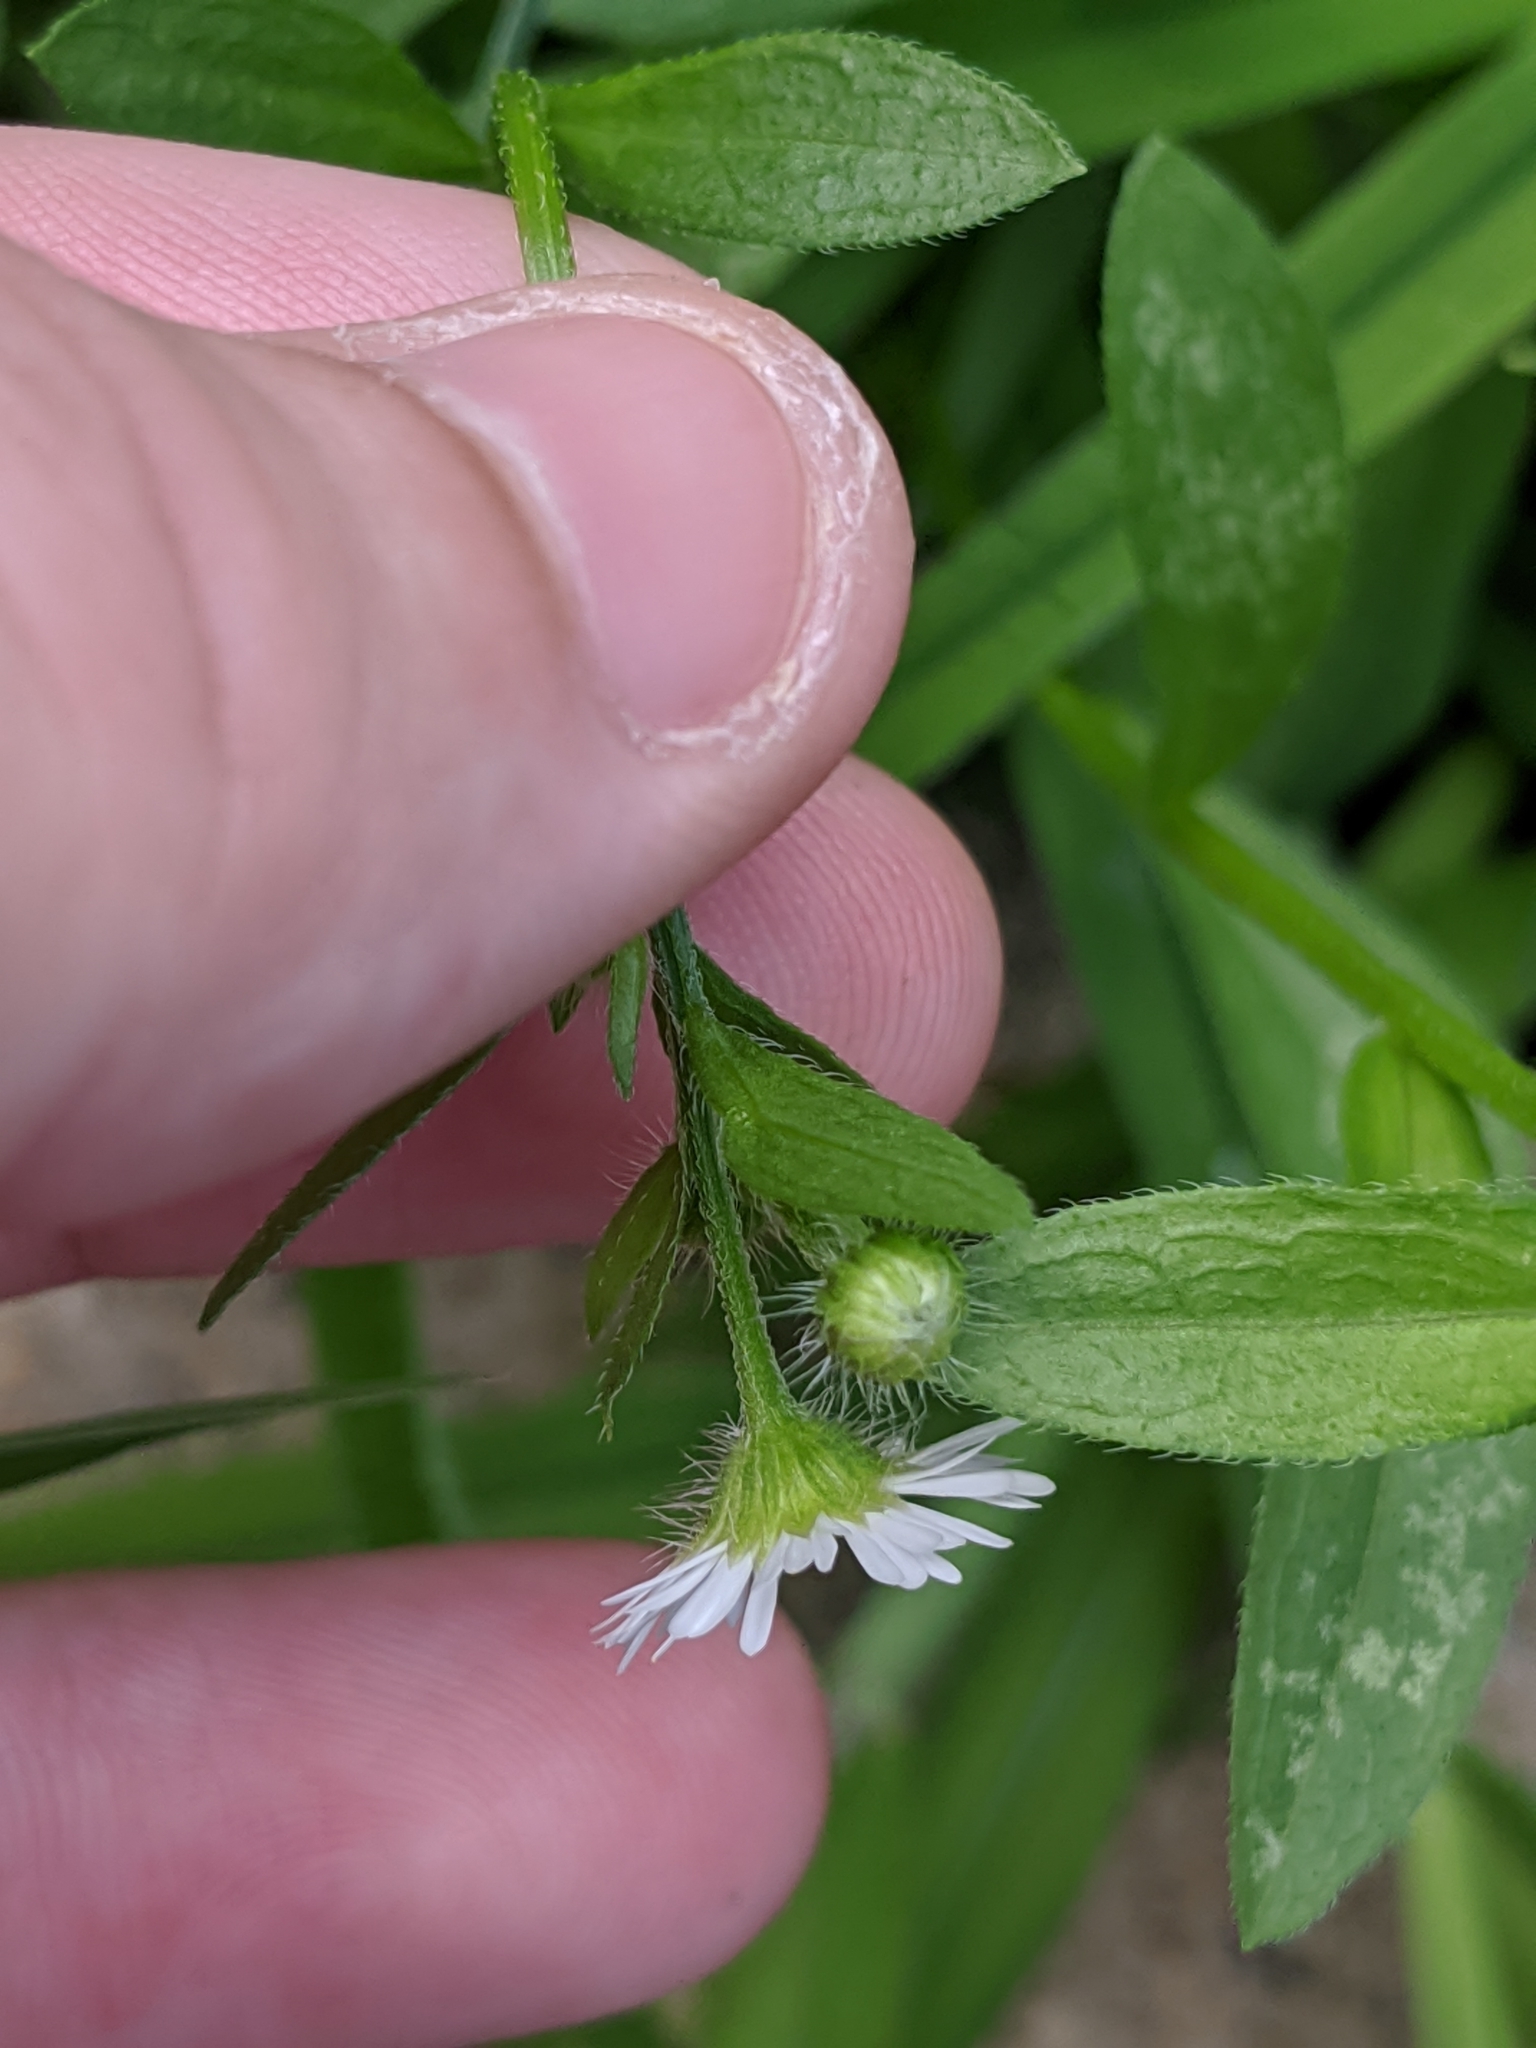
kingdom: Plantae
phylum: Tracheophyta
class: Magnoliopsida
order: Asterales
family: Asteraceae
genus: Erigeron
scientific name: Erigeron strigosus
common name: Common eastern fleabane
